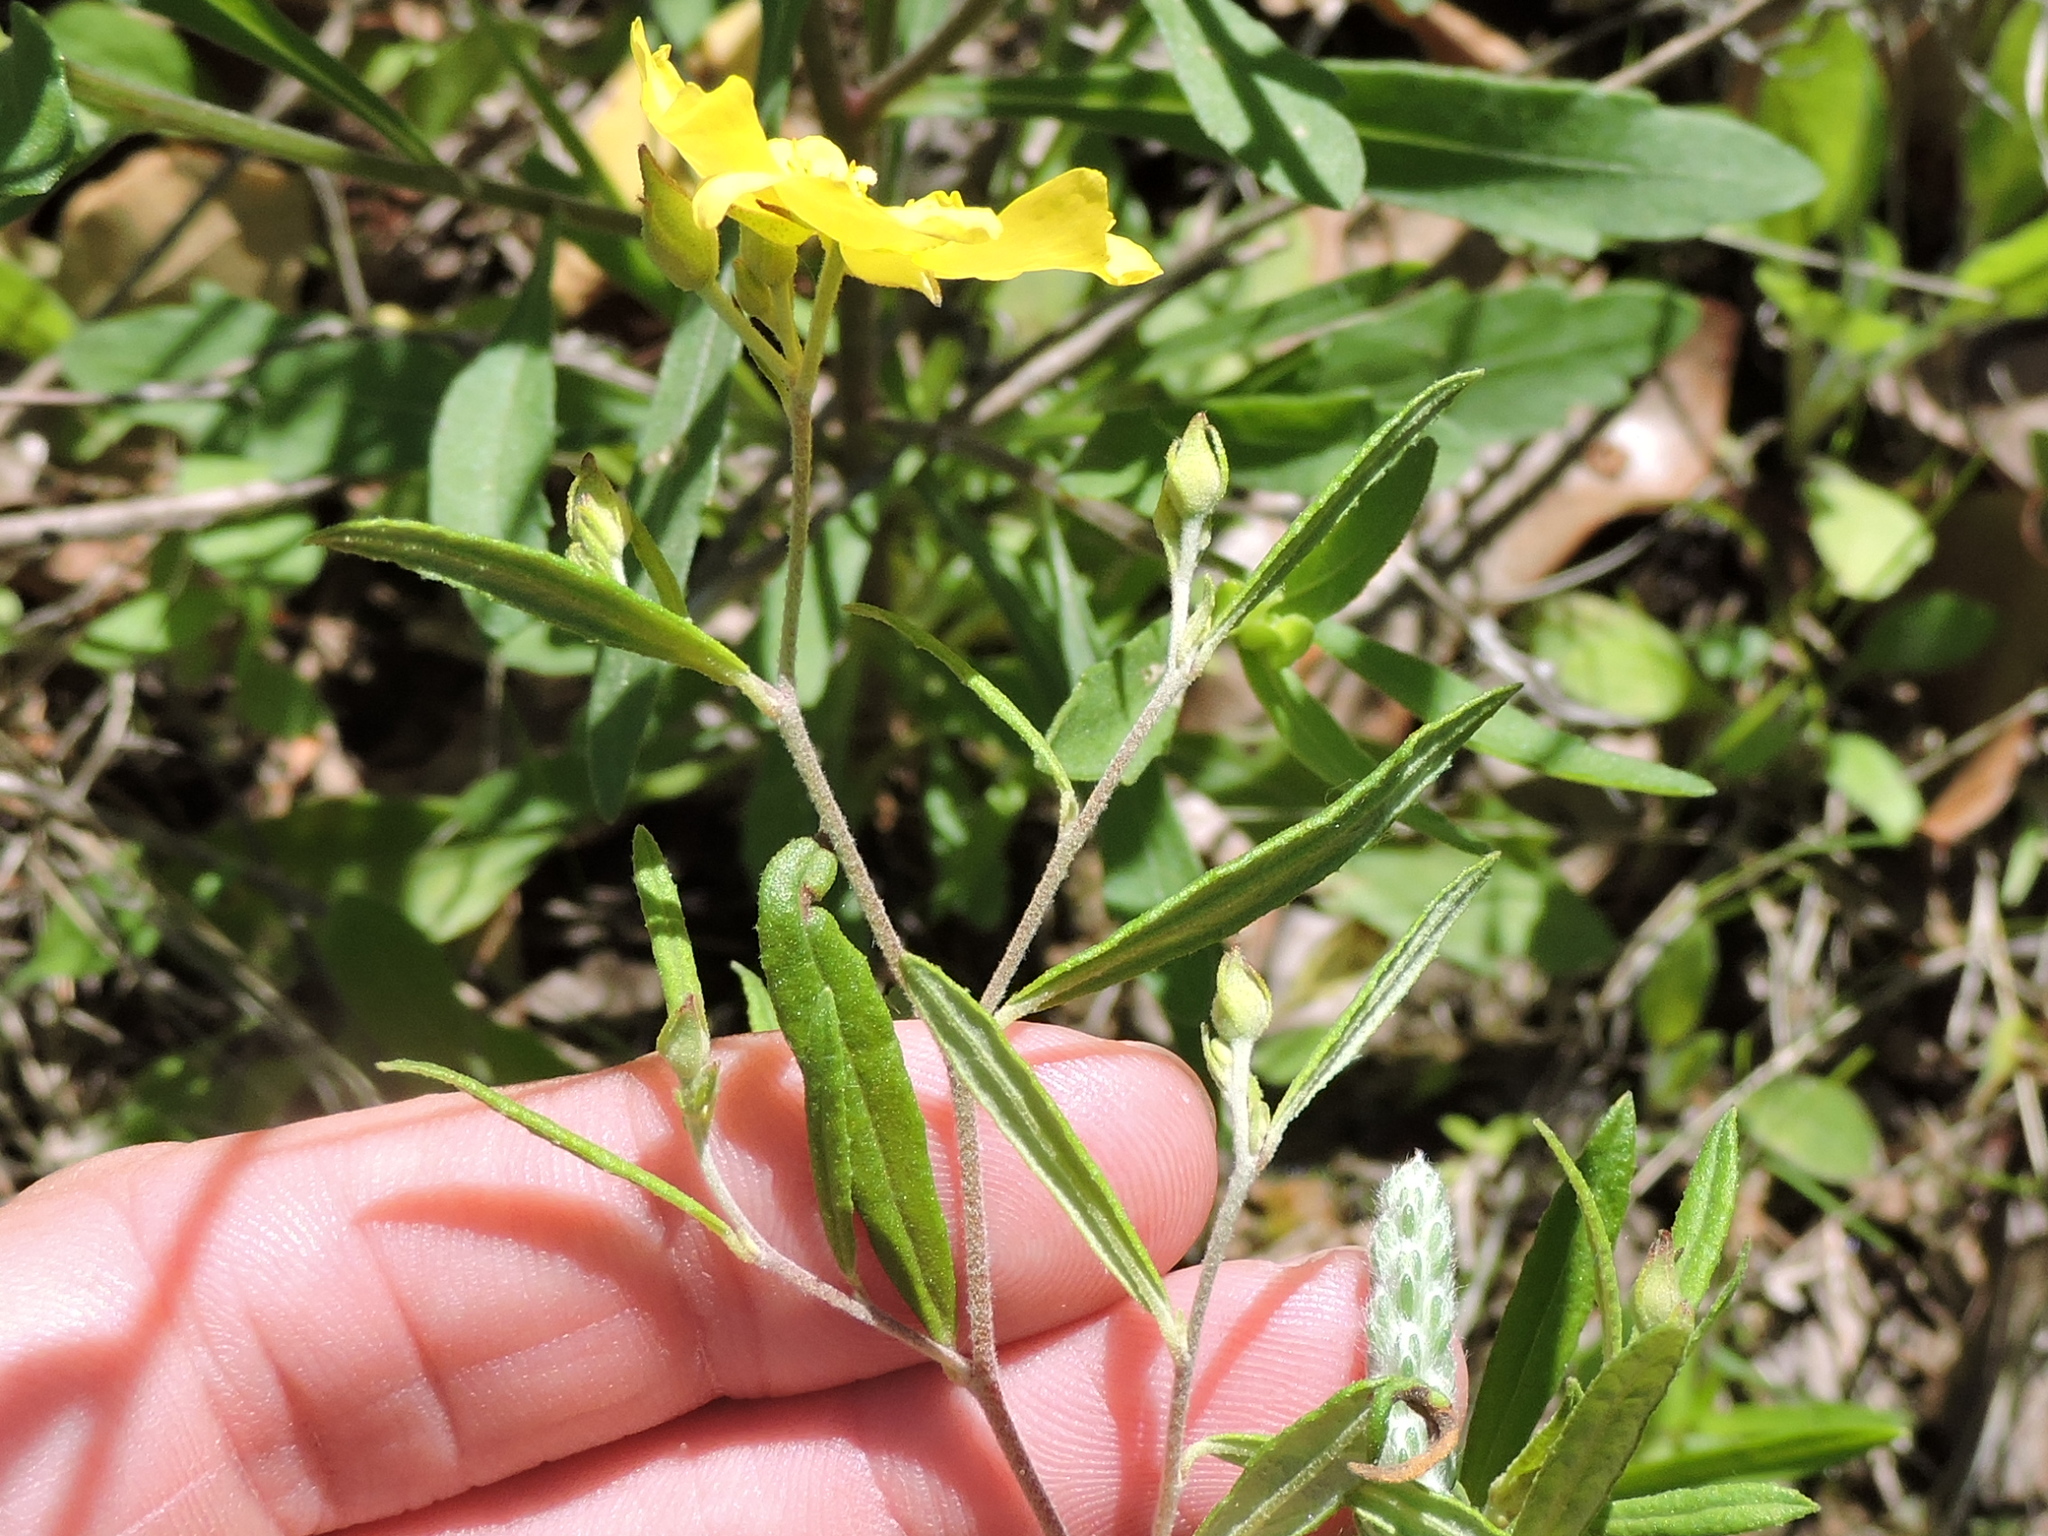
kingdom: Plantae
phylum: Tracheophyta
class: Magnoliopsida
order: Malvales
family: Cistaceae
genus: Crocanthemum
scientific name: Crocanthemum georgianum
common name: Georgia frostweed
